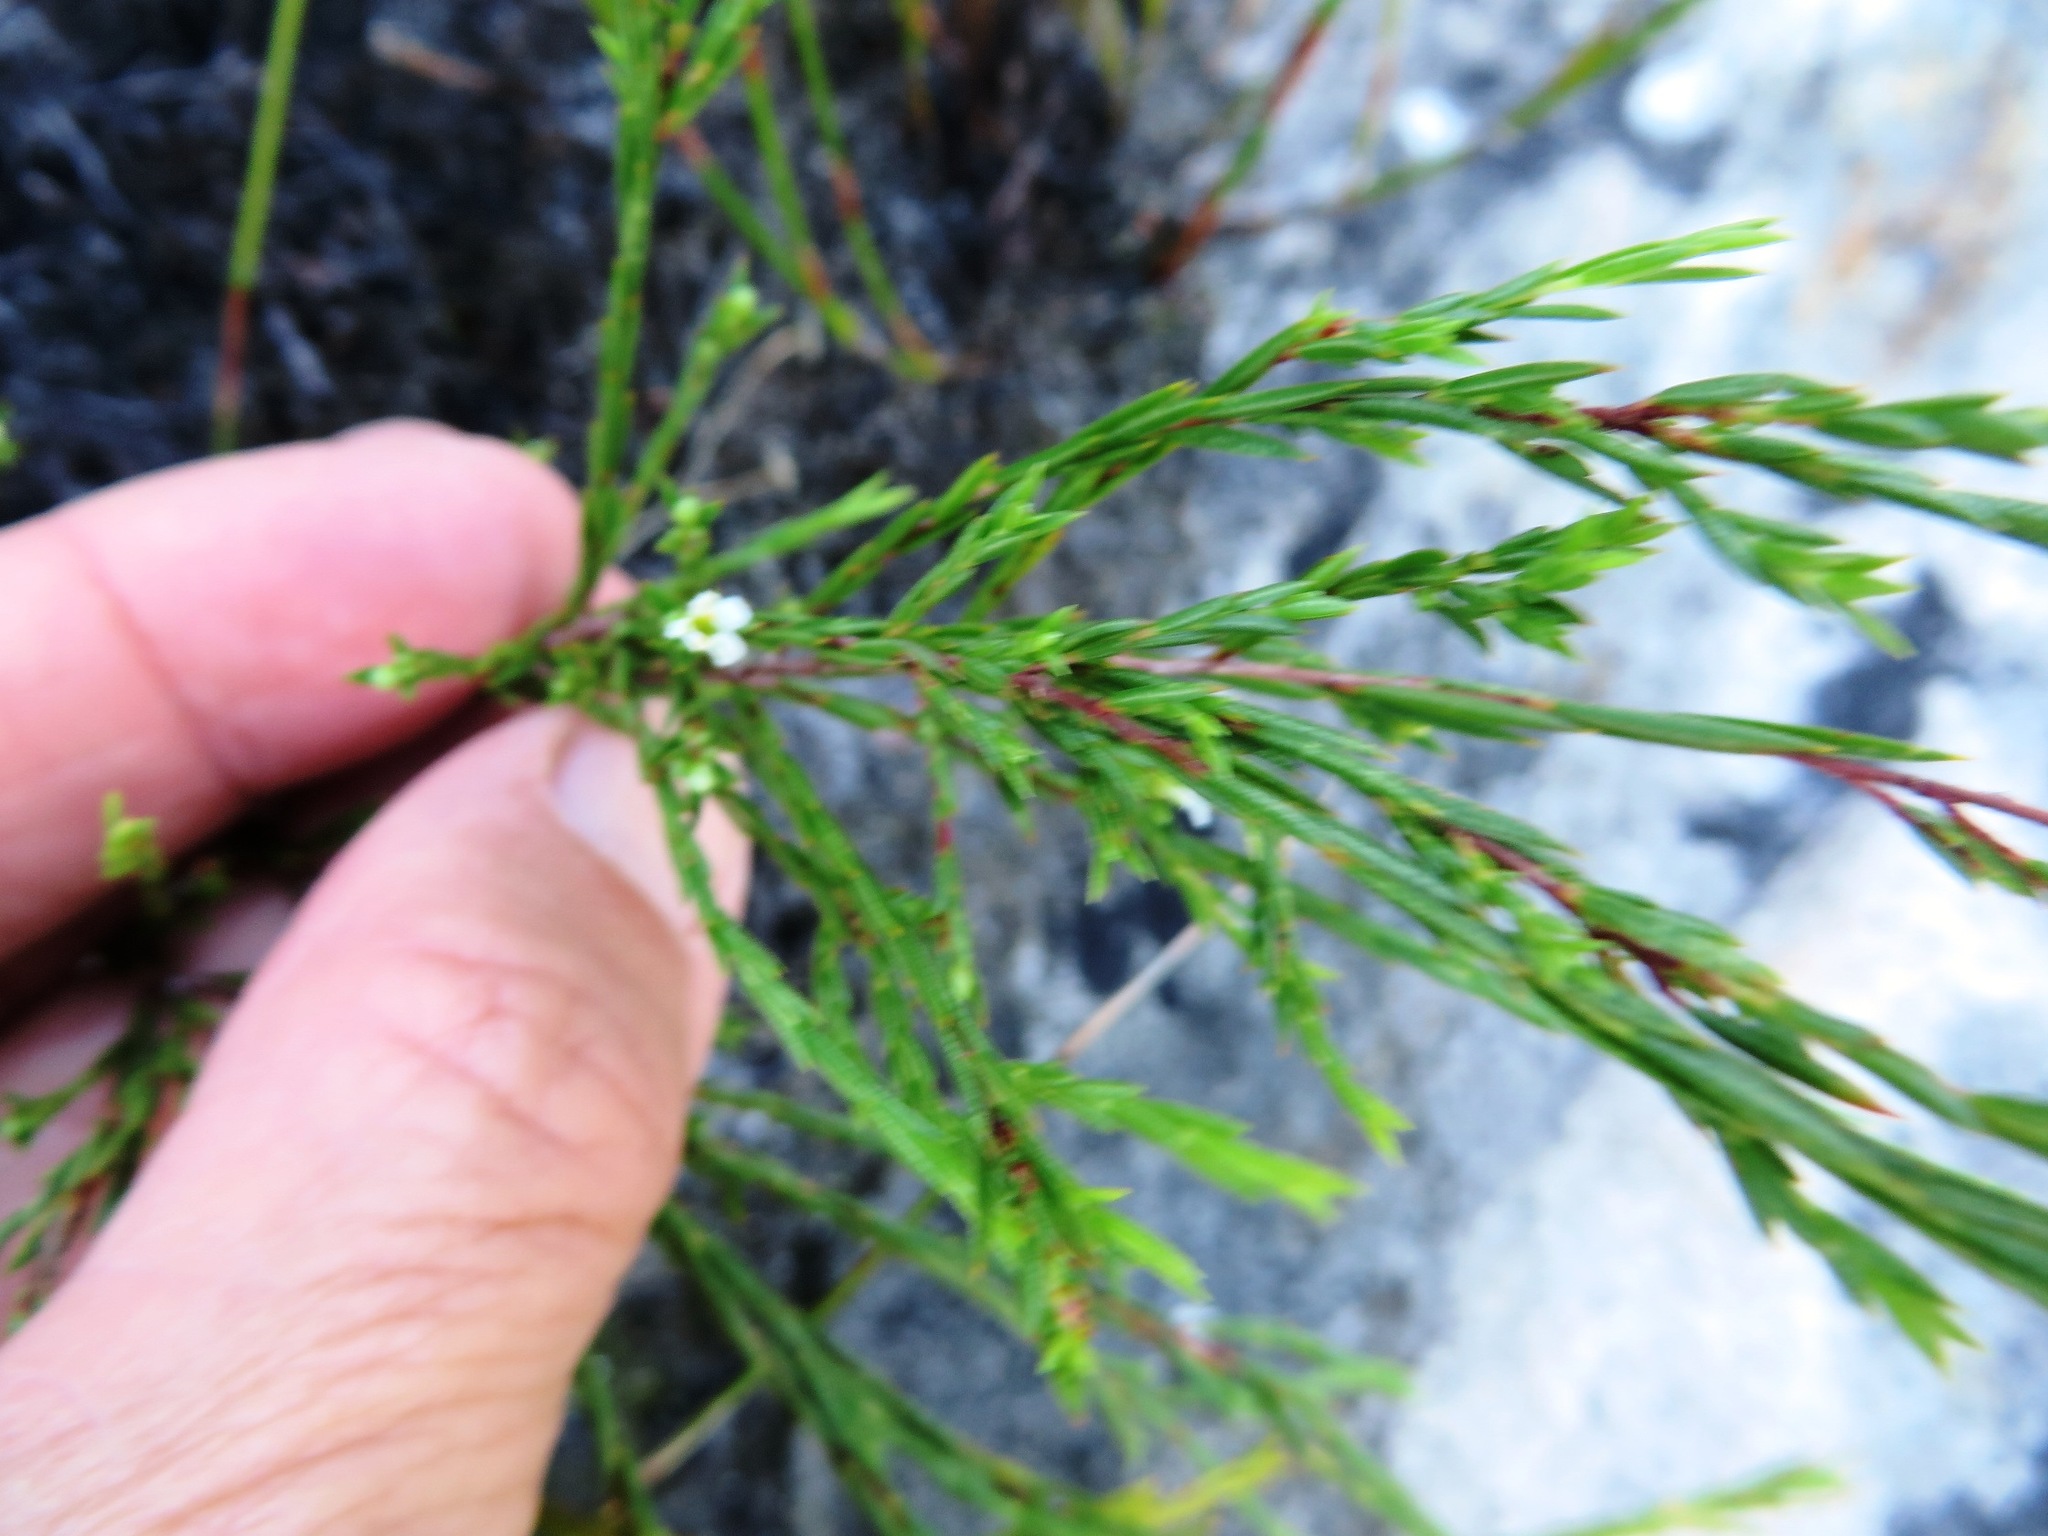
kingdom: Plantae
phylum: Tracheophyta
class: Magnoliopsida
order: Sapindales
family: Rutaceae
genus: Coleonema
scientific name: Coleonema juniperinum
